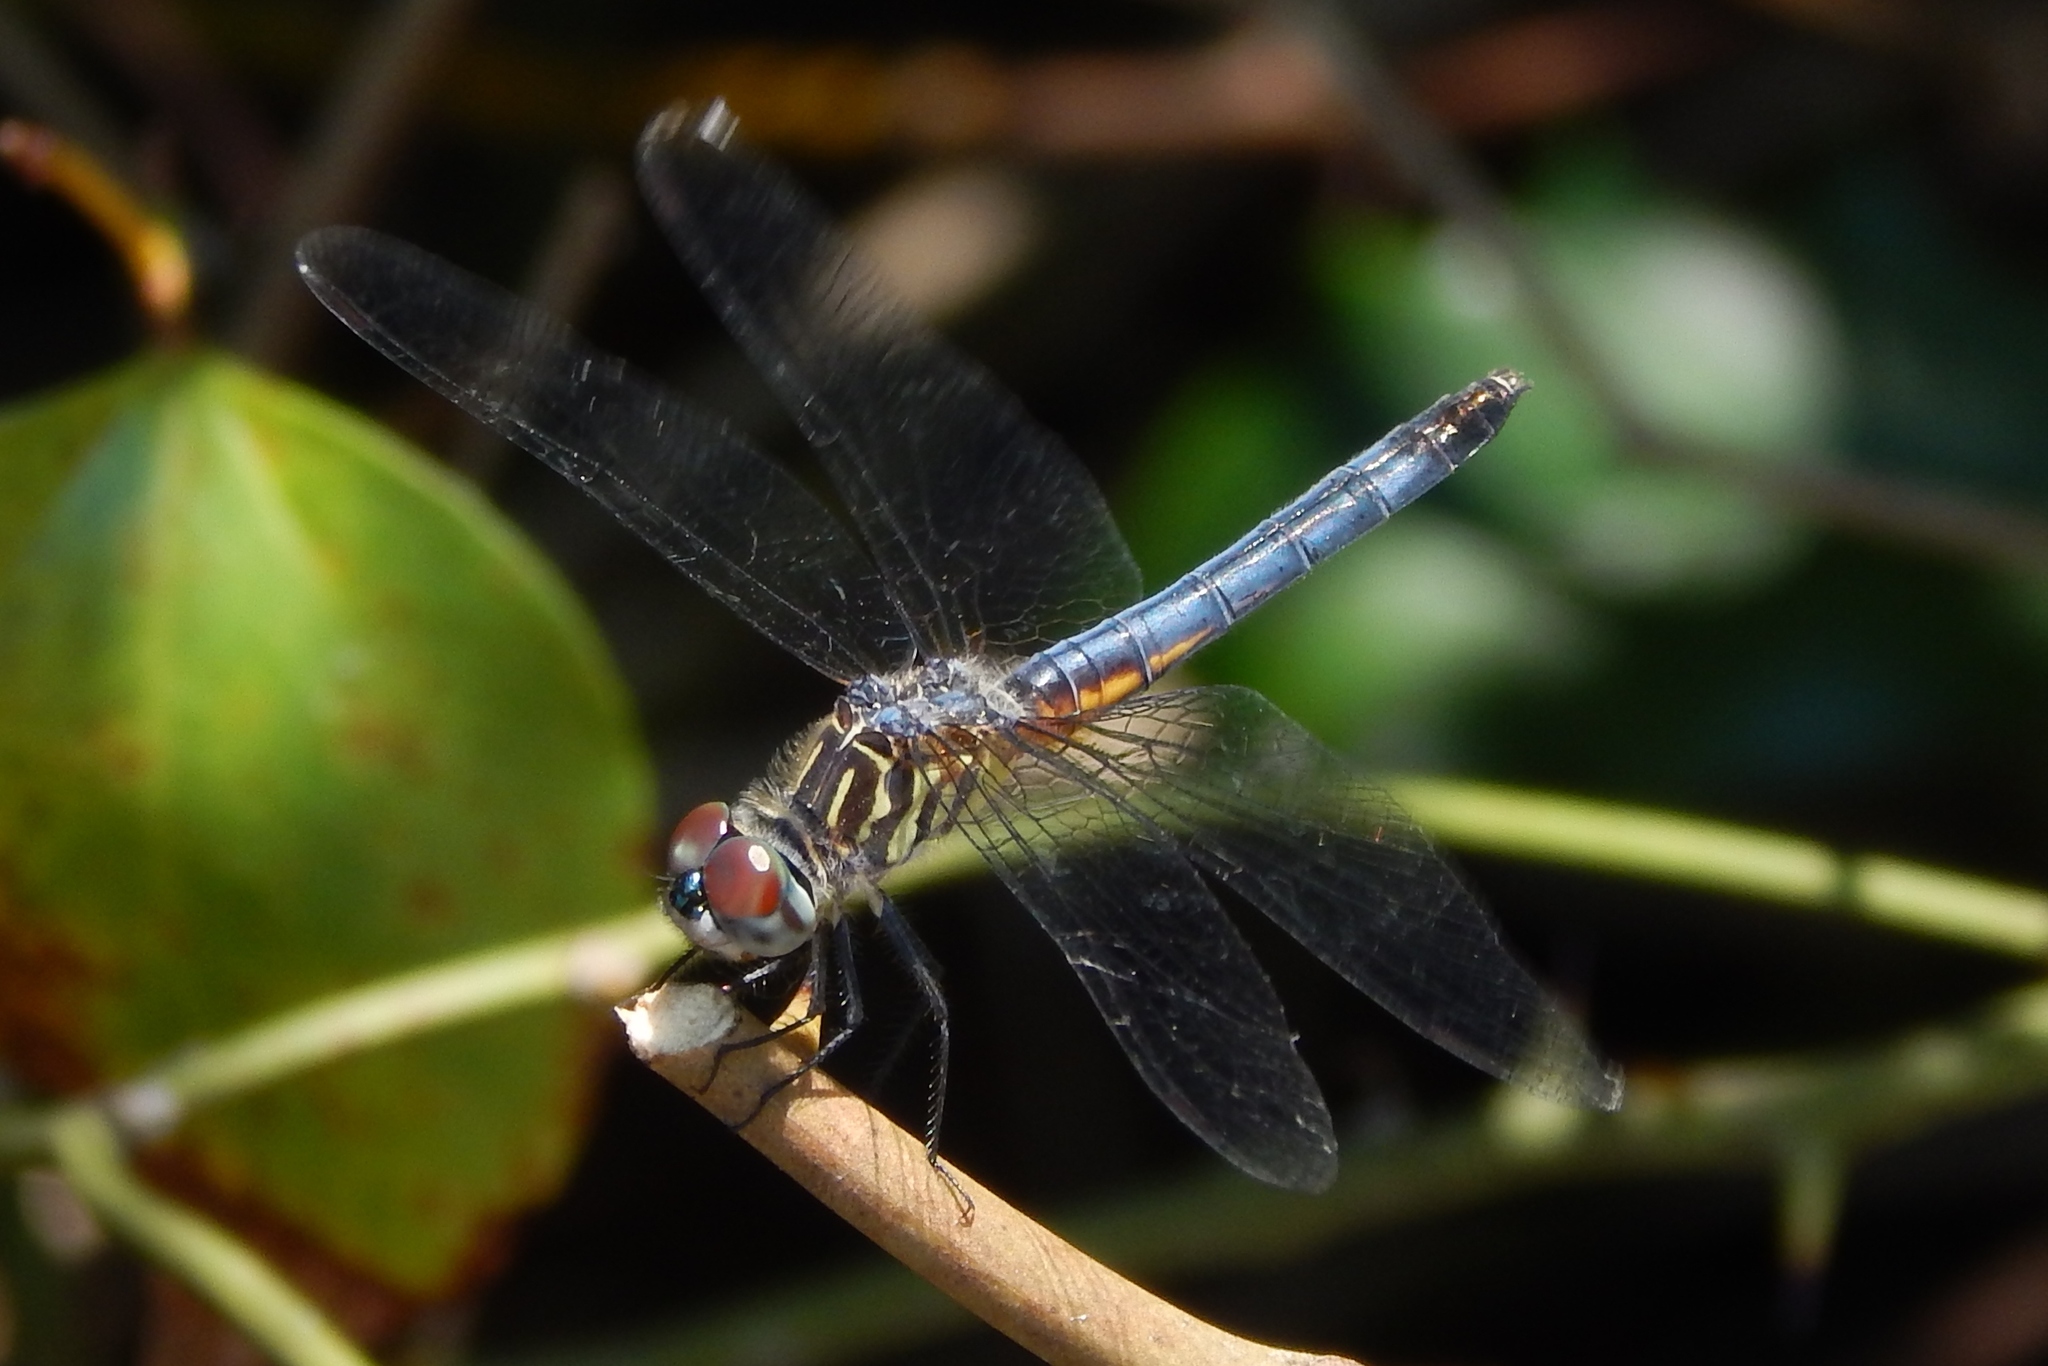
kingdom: Animalia
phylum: Arthropoda
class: Insecta
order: Odonata
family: Libellulidae
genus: Pachydiplax
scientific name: Pachydiplax longipennis
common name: Blue dasher
